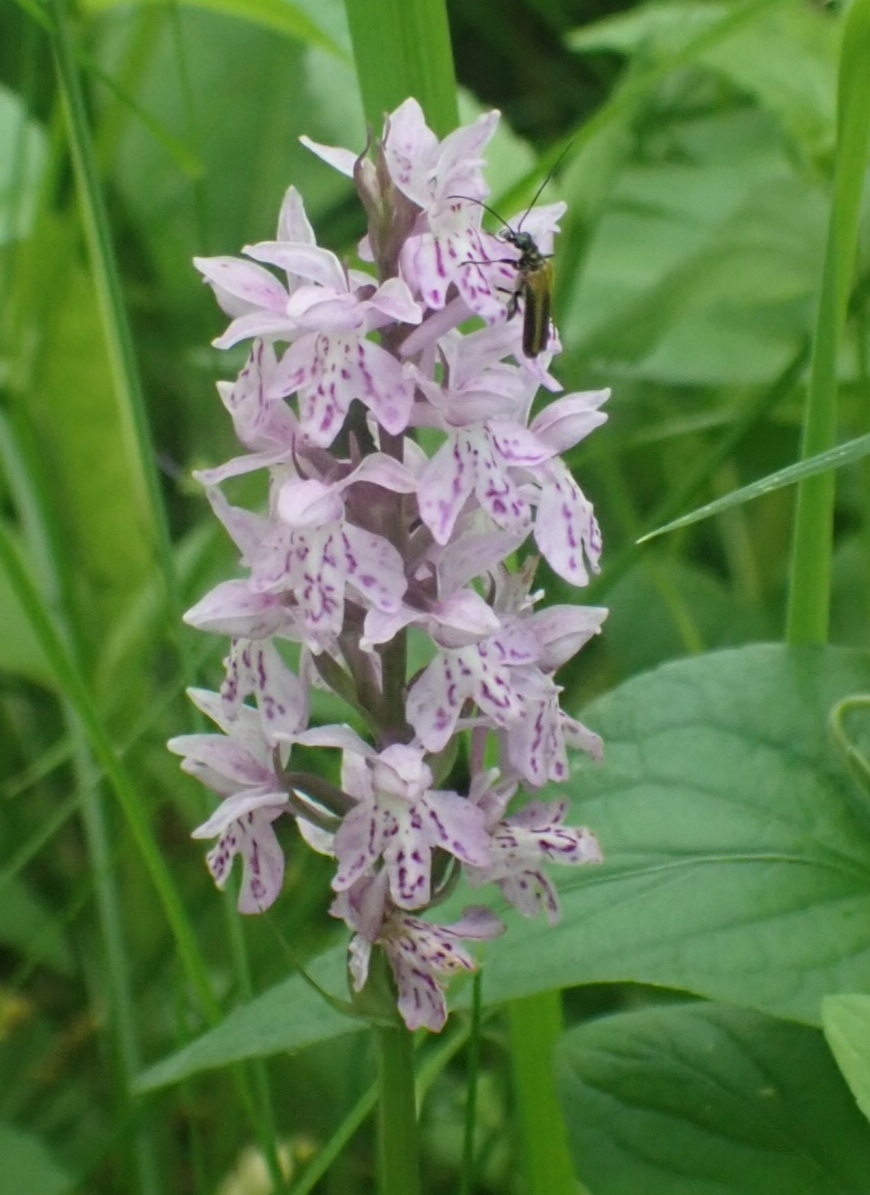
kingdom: Plantae
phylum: Tracheophyta
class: Liliopsida
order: Asparagales
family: Orchidaceae
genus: Dactylorhiza
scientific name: Dactylorhiza maculata
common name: Heath spotted-orchid
